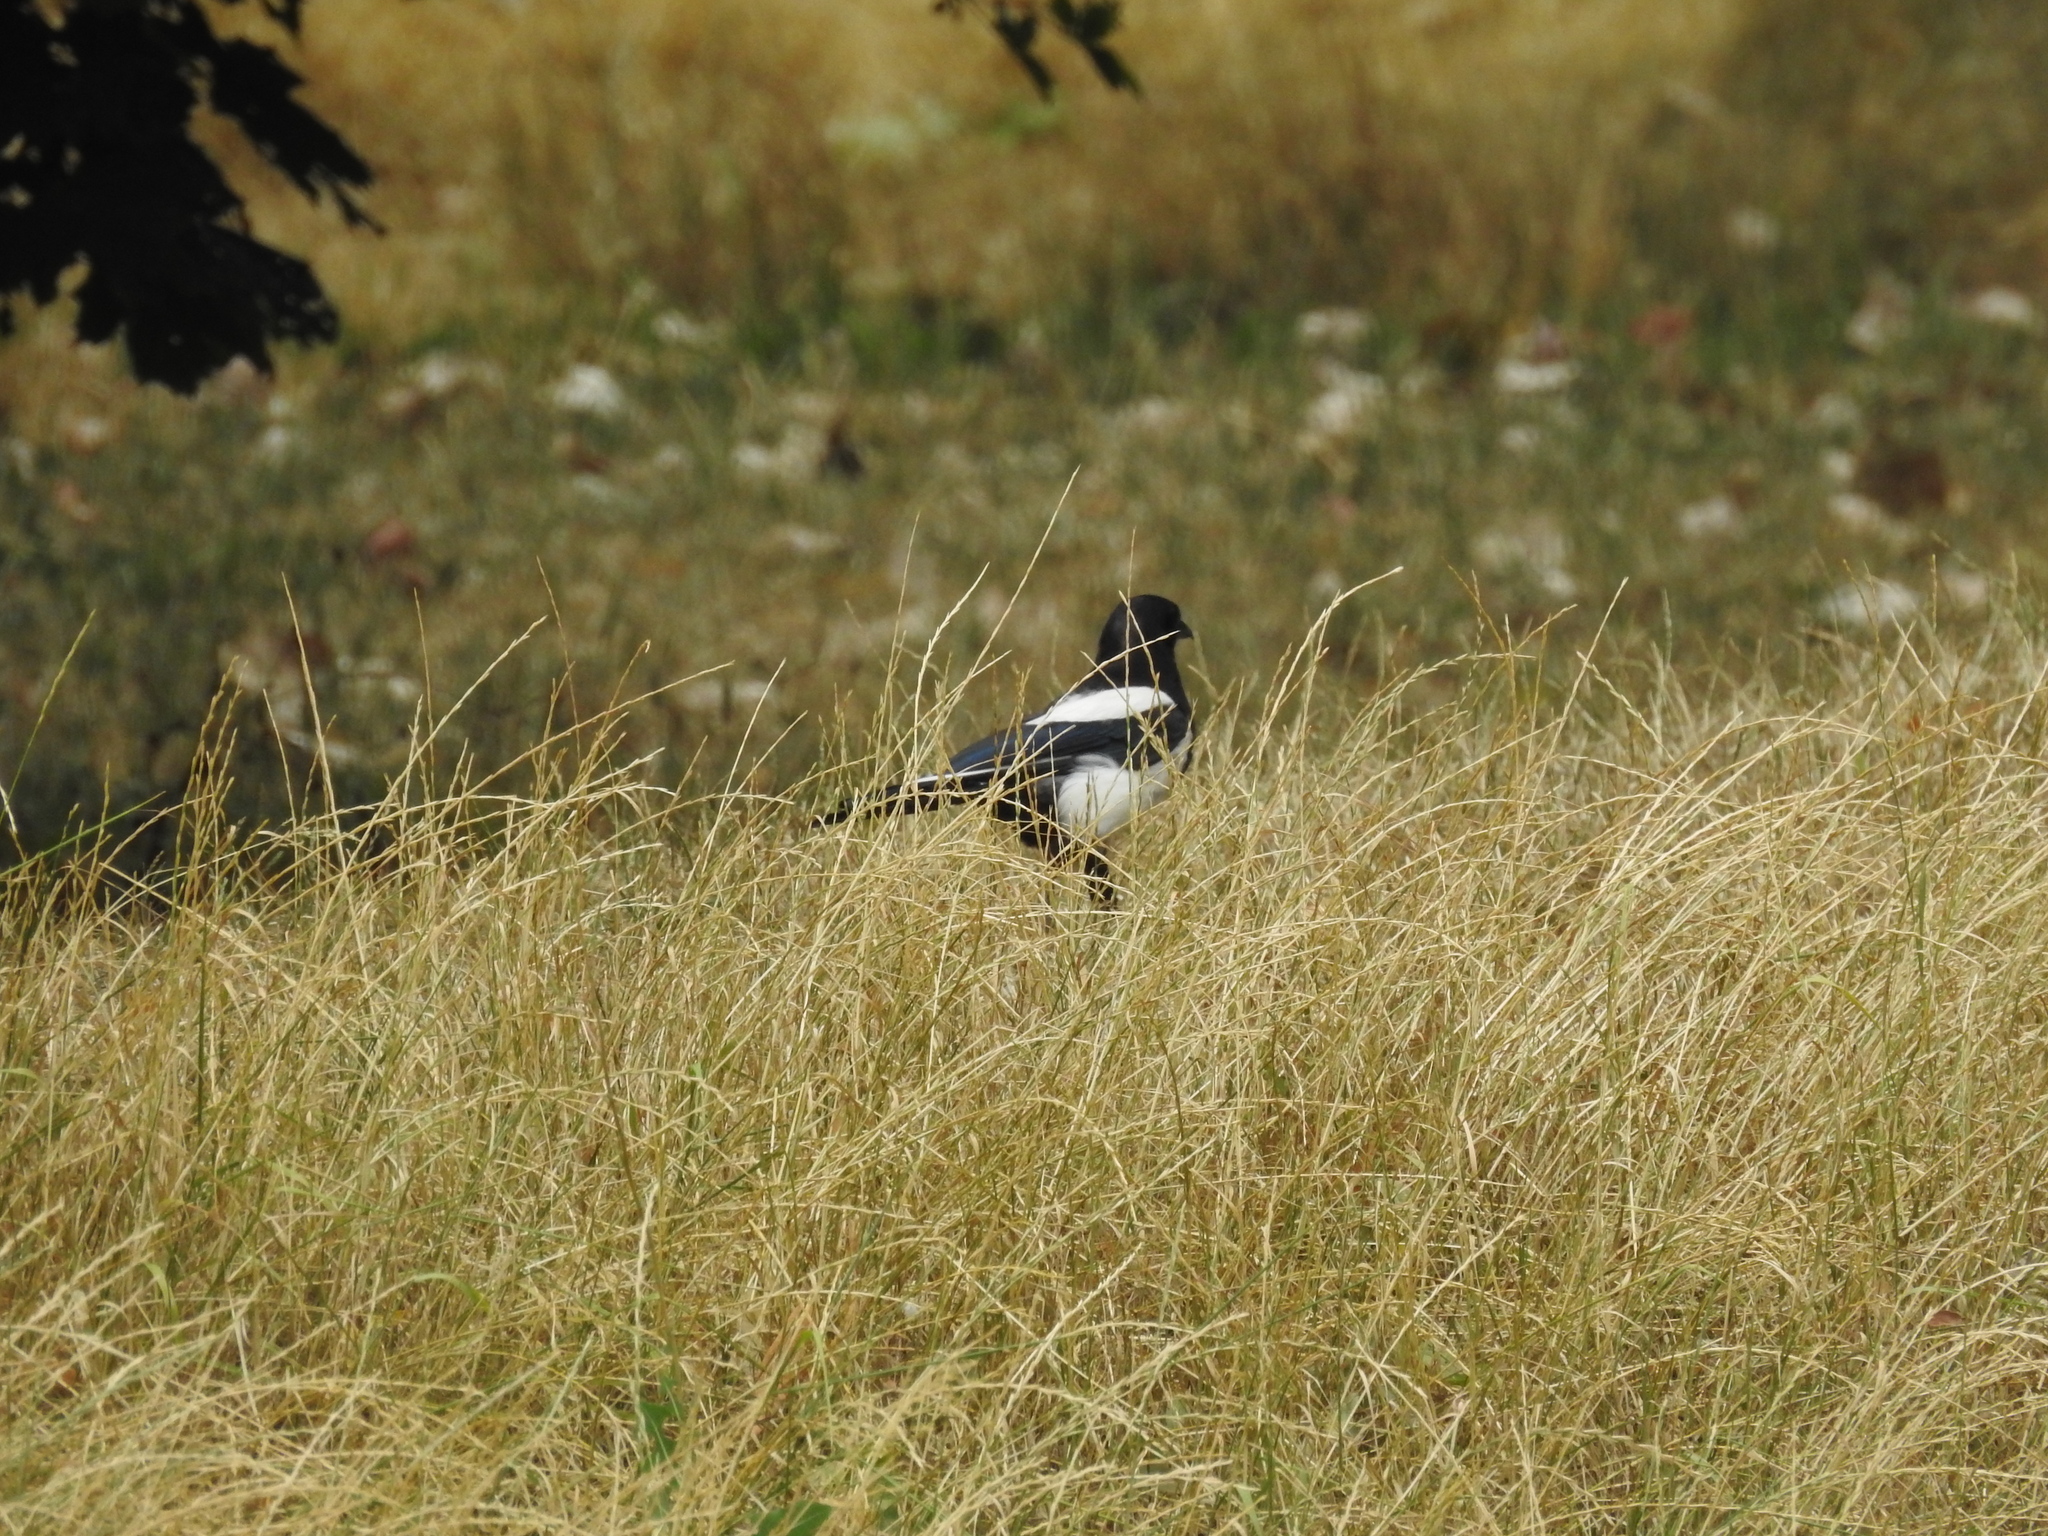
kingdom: Animalia
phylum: Chordata
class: Aves
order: Passeriformes
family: Corvidae
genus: Pica
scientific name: Pica pica
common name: Eurasian magpie
